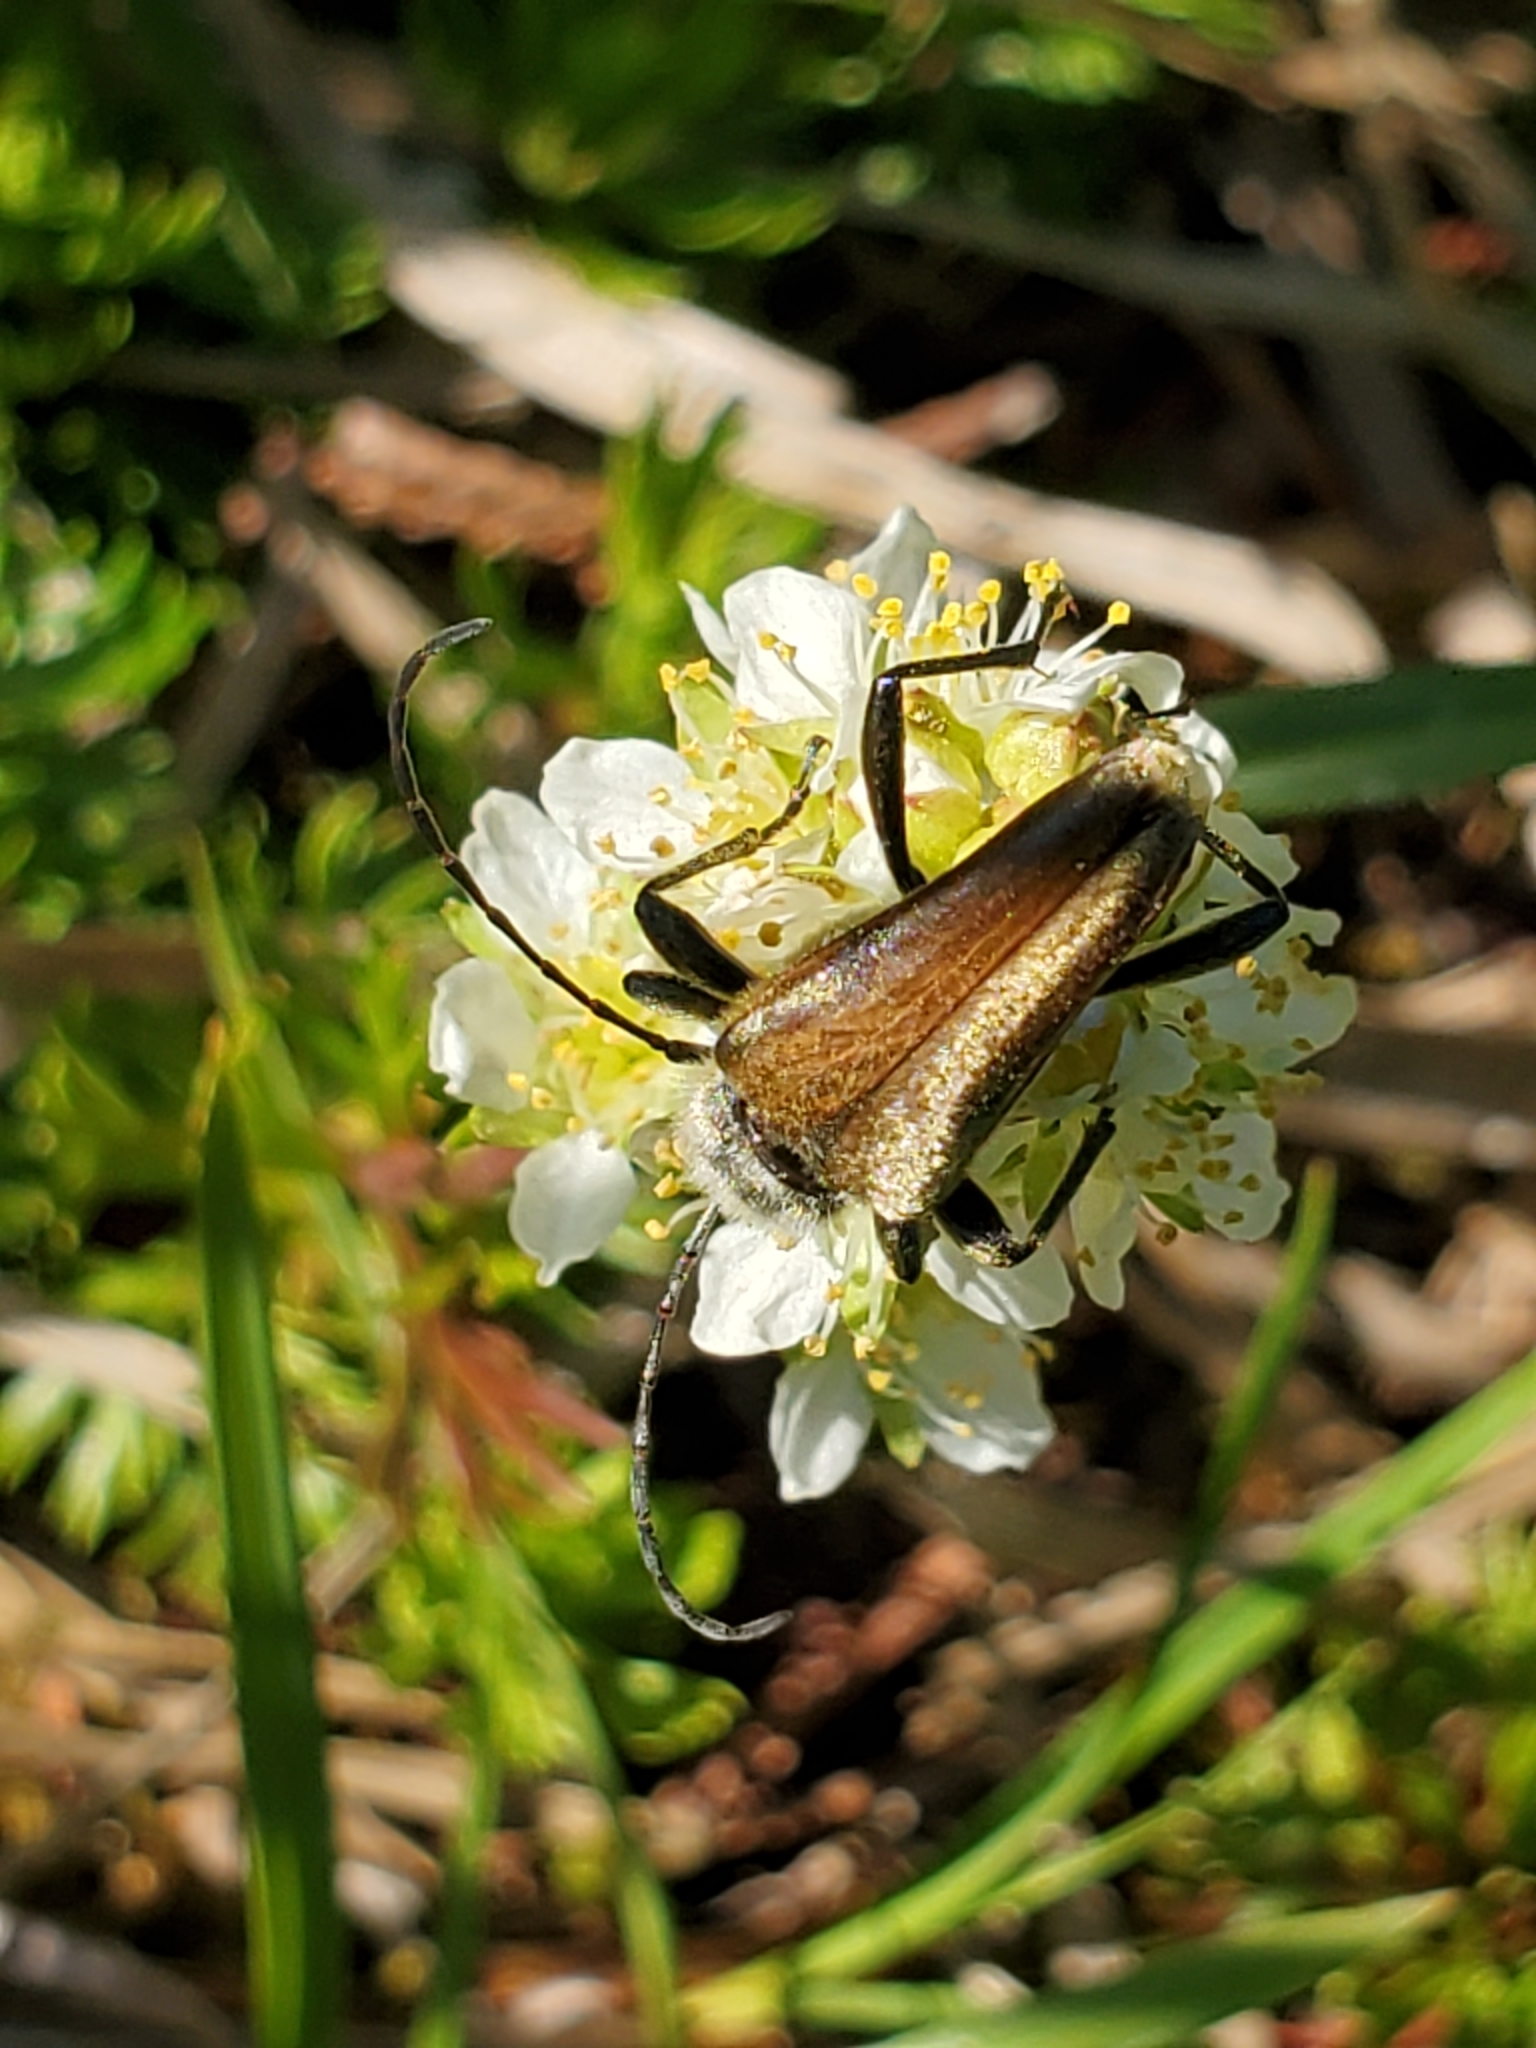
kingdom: Animalia
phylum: Arthropoda
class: Insecta
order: Coleoptera
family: Cerambycidae
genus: Cosmosalia
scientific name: Cosmosalia chrysocoma
